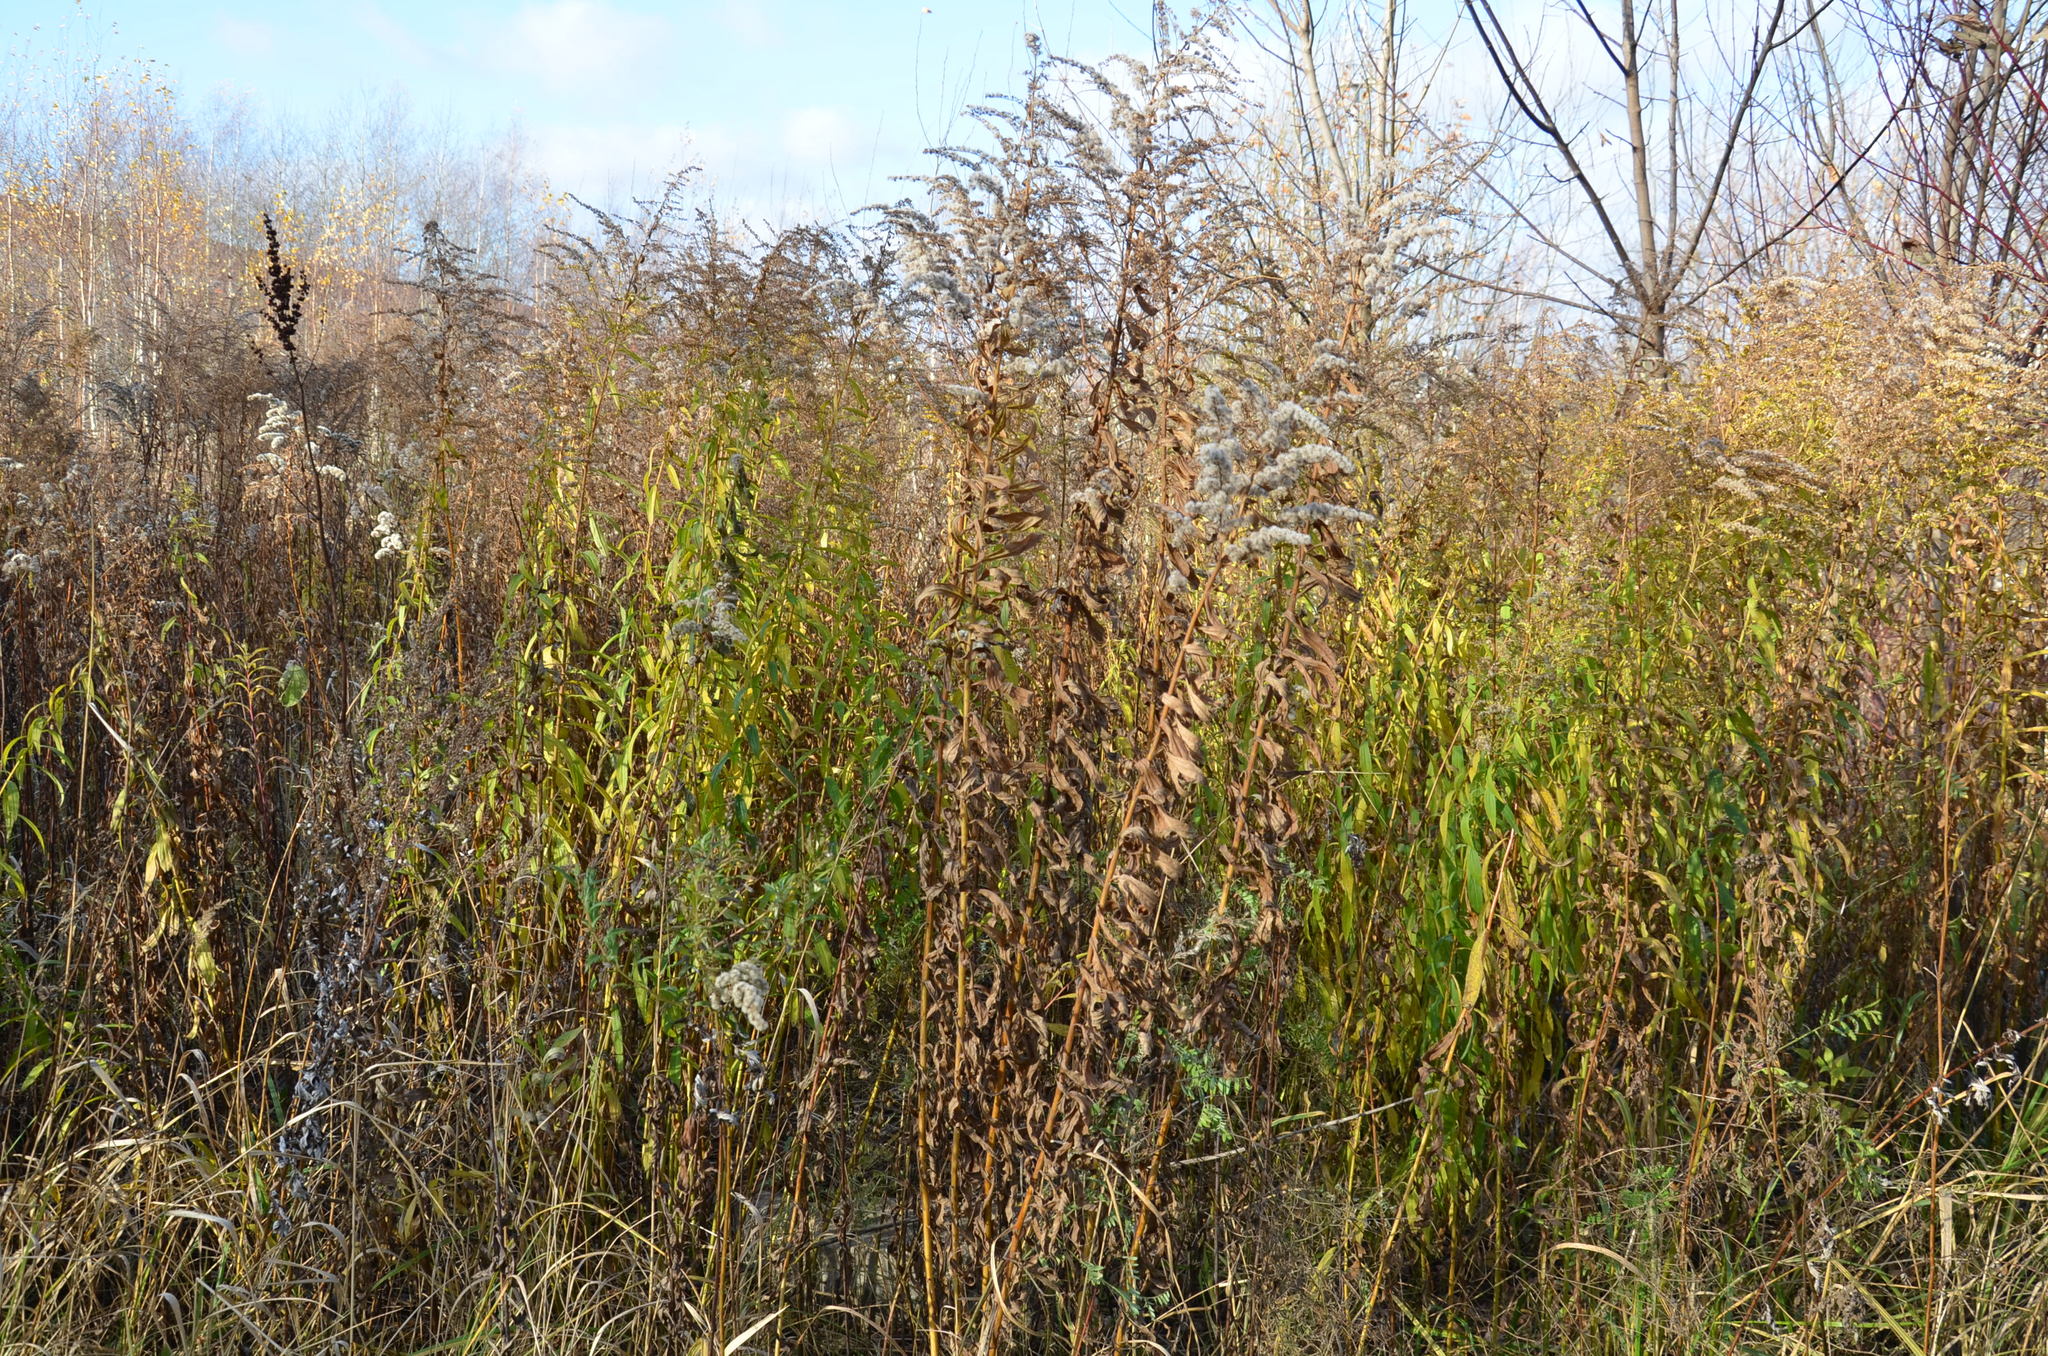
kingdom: Plantae
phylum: Tracheophyta
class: Magnoliopsida
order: Asterales
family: Asteraceae
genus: Solidago
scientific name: Solidago canadensis
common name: Canada goldenrod
